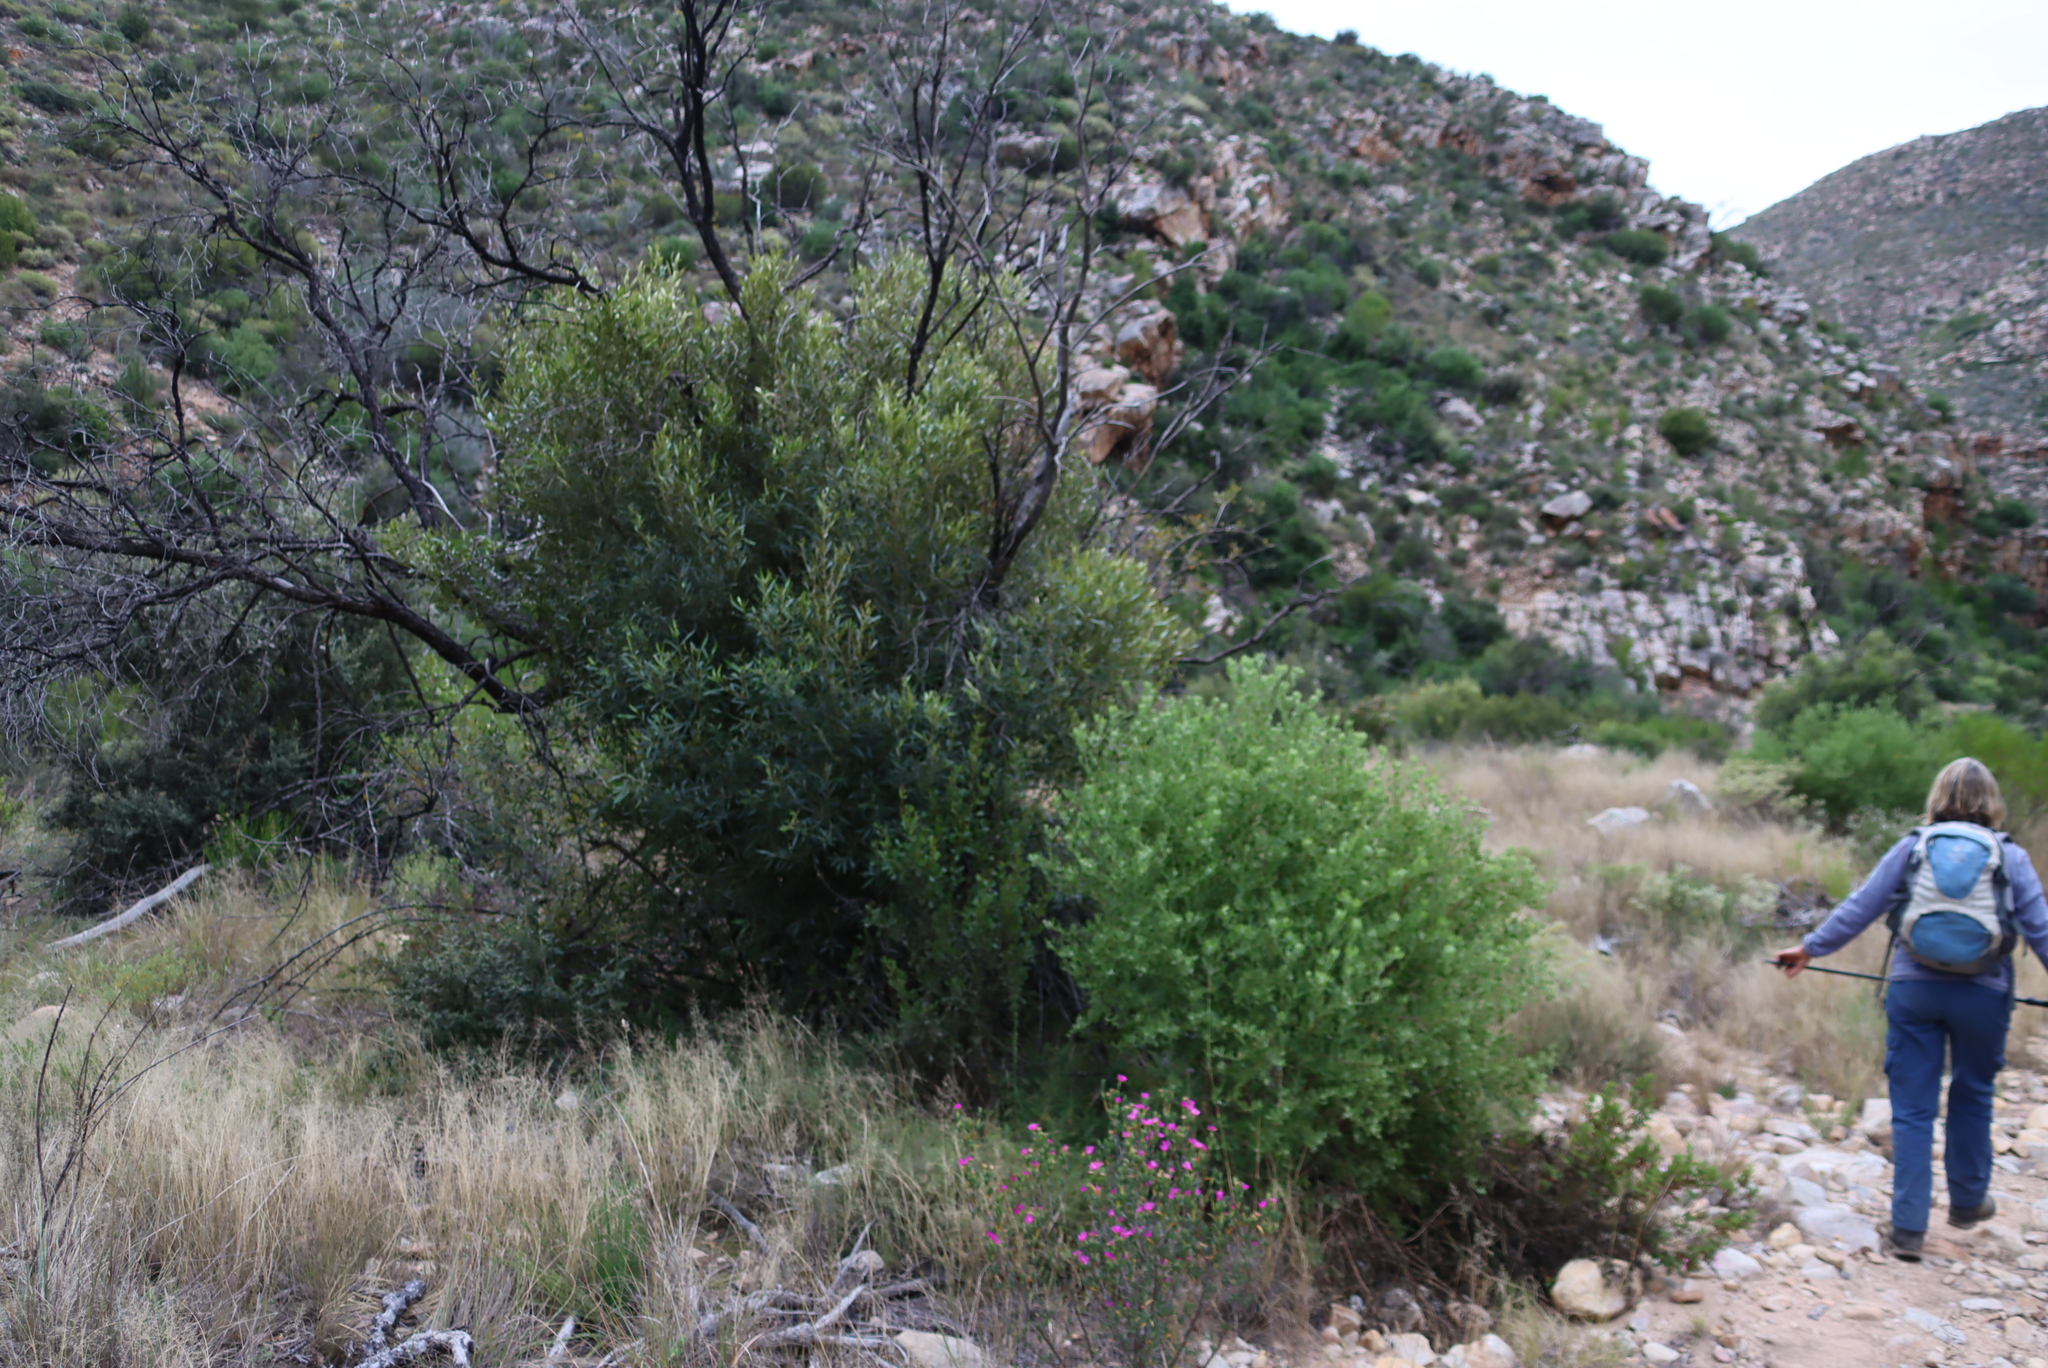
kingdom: Plantae
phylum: Tracheophyta
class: Magnoliopsida
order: Lamiales
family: Oleaceae
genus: Olea
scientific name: Olea europaea
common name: Olive
